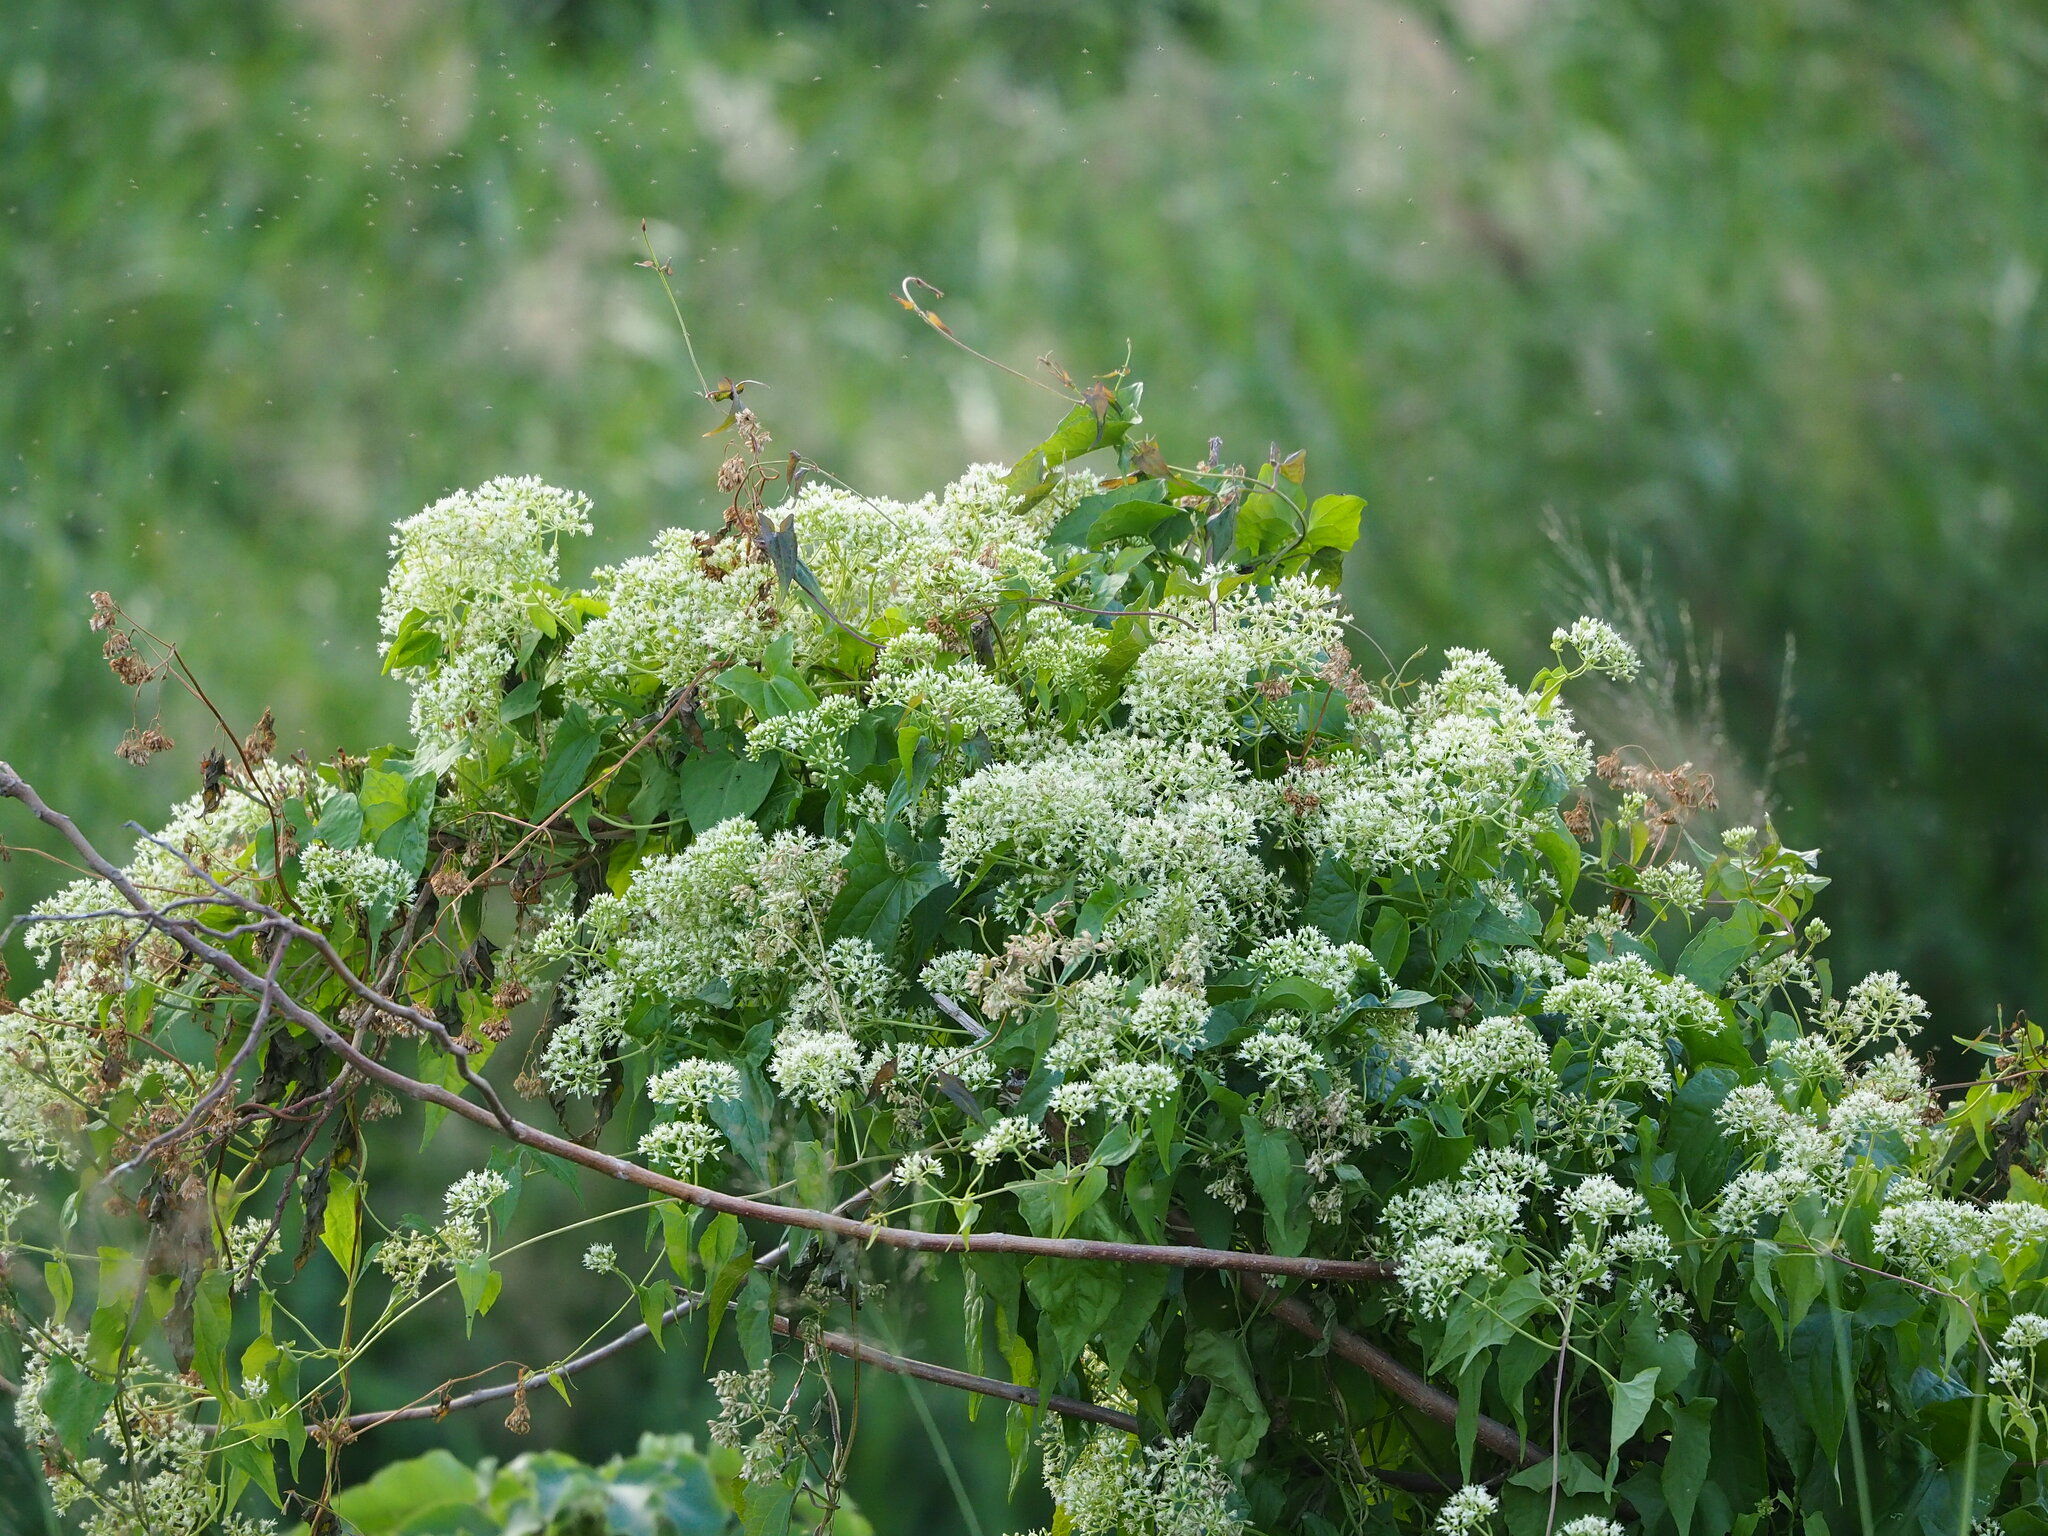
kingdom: Plantae
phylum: Tracheophyta
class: Magnoliopsida
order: Asterales
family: Asteraceae
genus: Mikania
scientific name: Mikania micrantha
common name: Mile-a-minute
